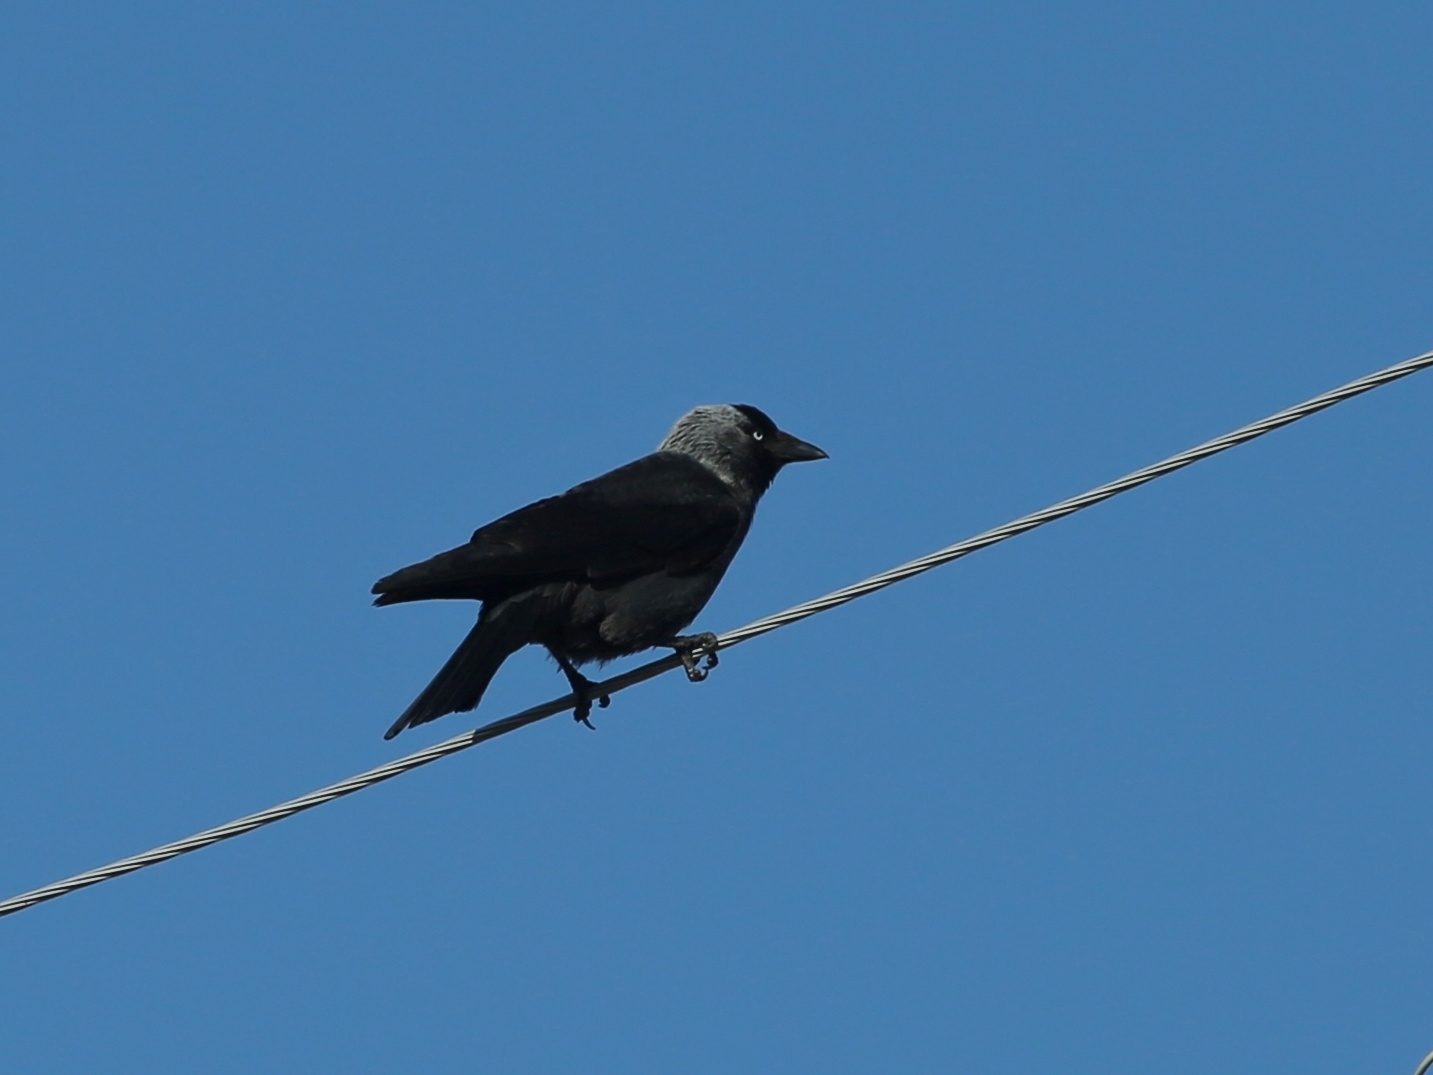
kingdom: Animalia
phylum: Chordata
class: Aves
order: Passeriformes
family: Corvidae
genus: Coloeus
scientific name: Coloeus monedula
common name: Western jackdaw
